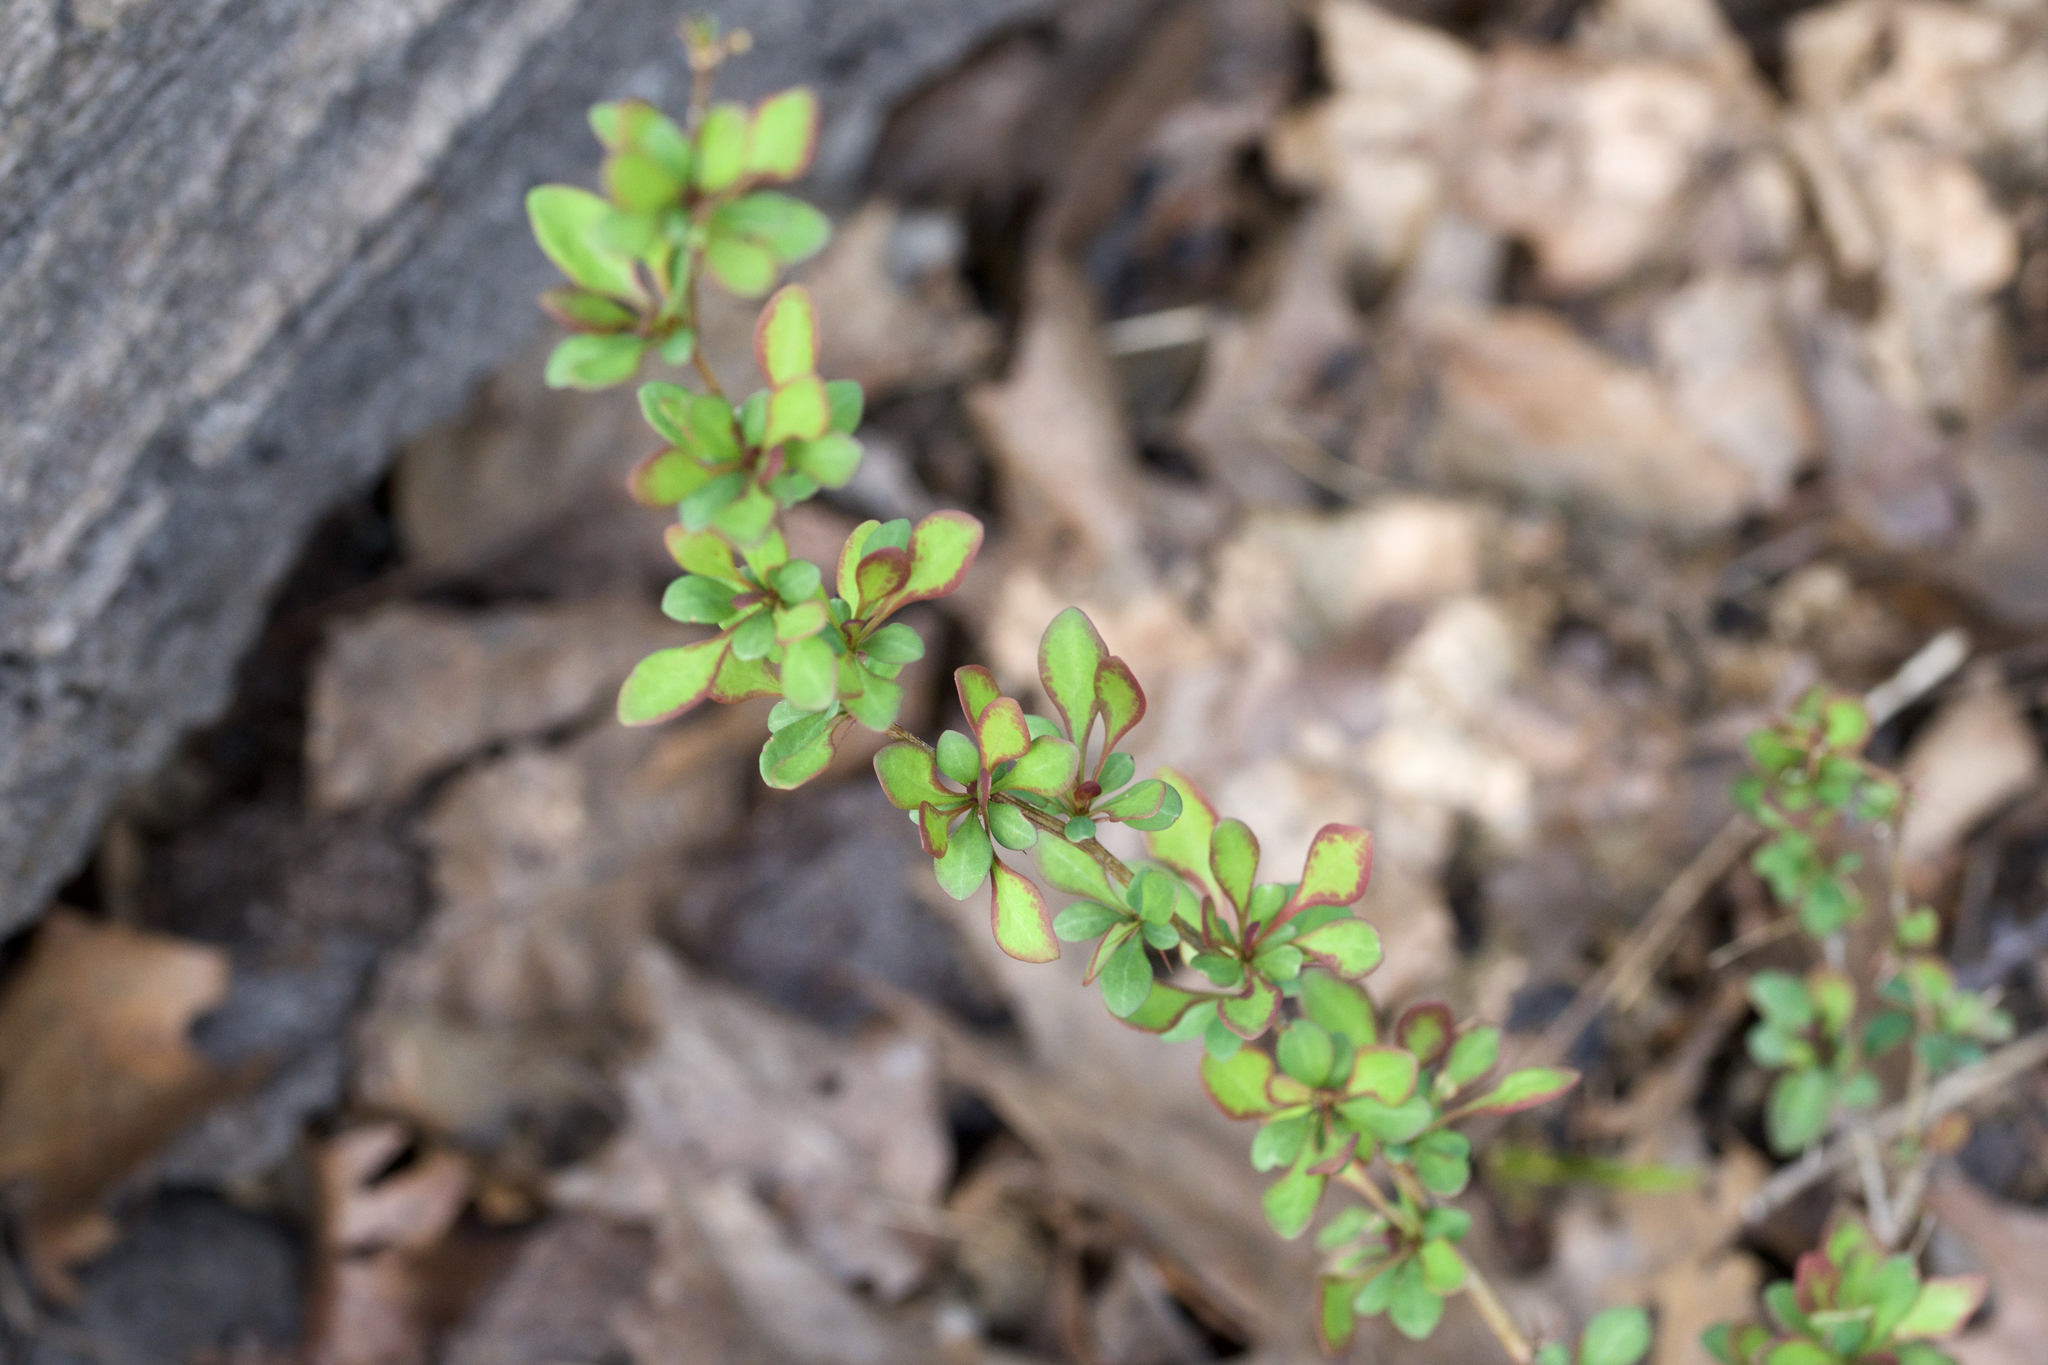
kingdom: Plantae
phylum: Tracheophyta
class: Magnoliopsida
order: Ranunculales
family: Berberidaceae
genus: Berberis
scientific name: Berberis thunbergii
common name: Japanese barberry
